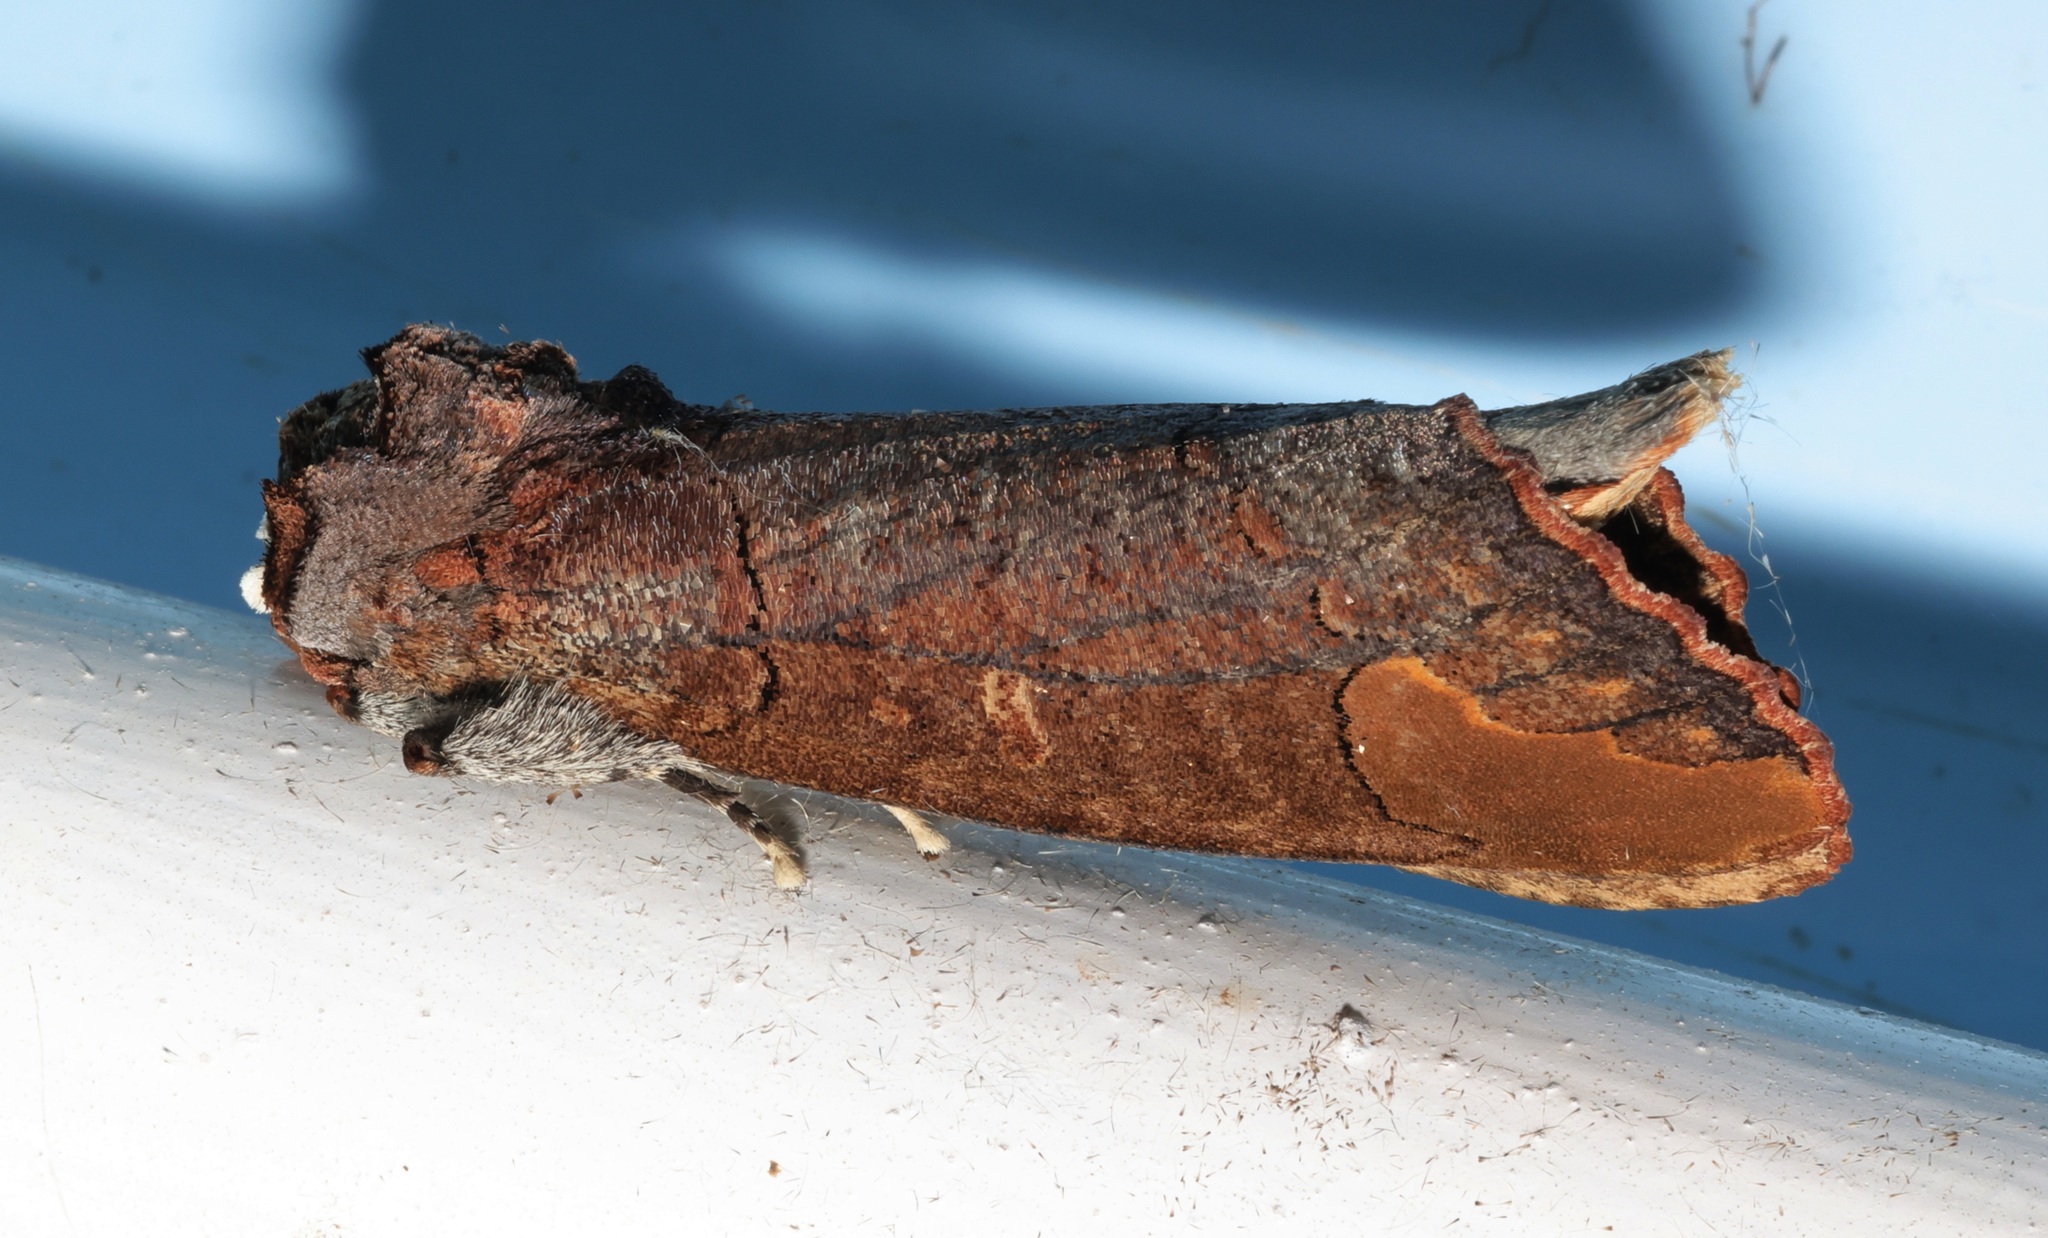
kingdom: Animalia
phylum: Arthropoda
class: Insecta
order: Lepidoptera
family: Notodontidae
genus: Phalera
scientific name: Phalera grotei
